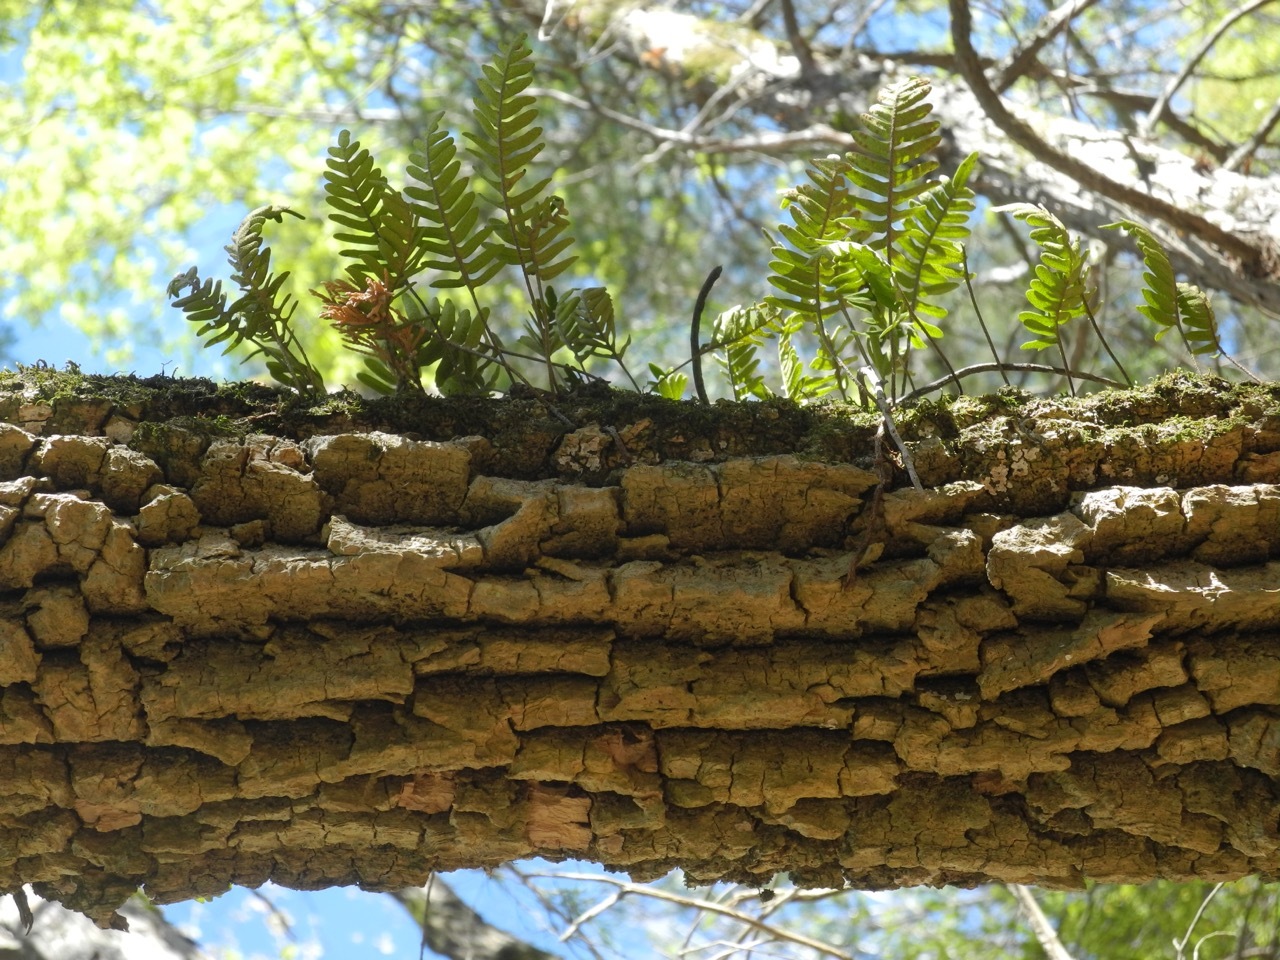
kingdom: Plantae
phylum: Tracheophyta
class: Polypodiopsida
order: Polypodiales
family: Polypodiaceae
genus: Pleopeltis
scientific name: Pleopeltis michauxiana
